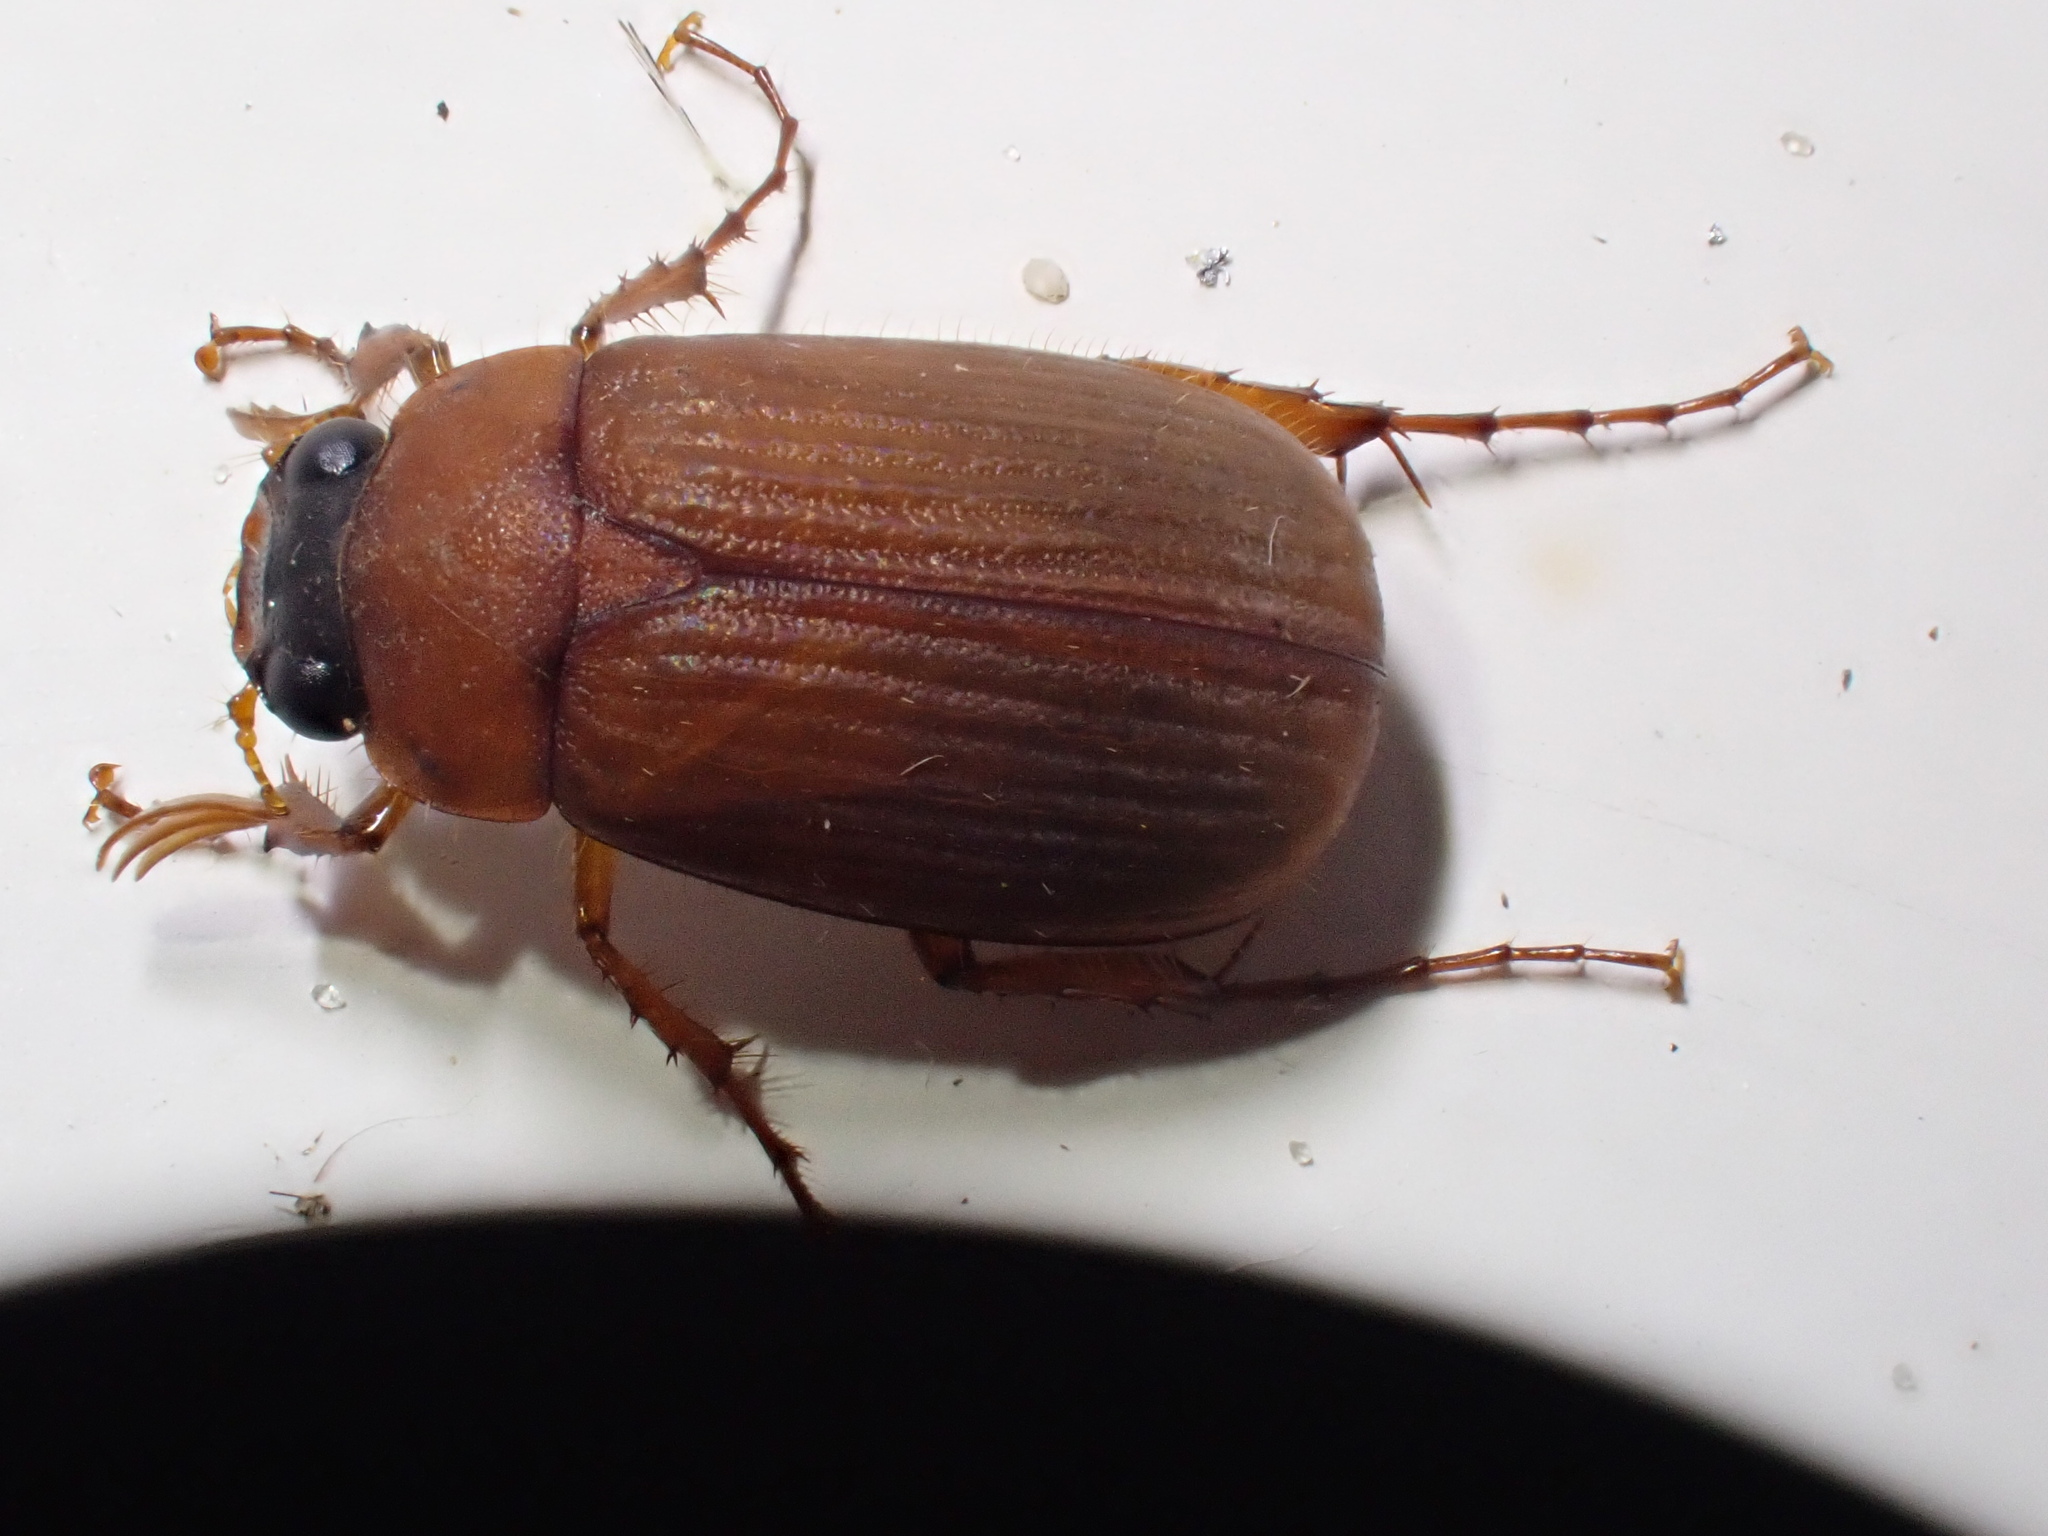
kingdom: Animalia
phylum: Arthropoda
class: Insecta
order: Coleoptera
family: Scarabaeidae
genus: Serica
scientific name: Serica brunnea
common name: Brown chafer
